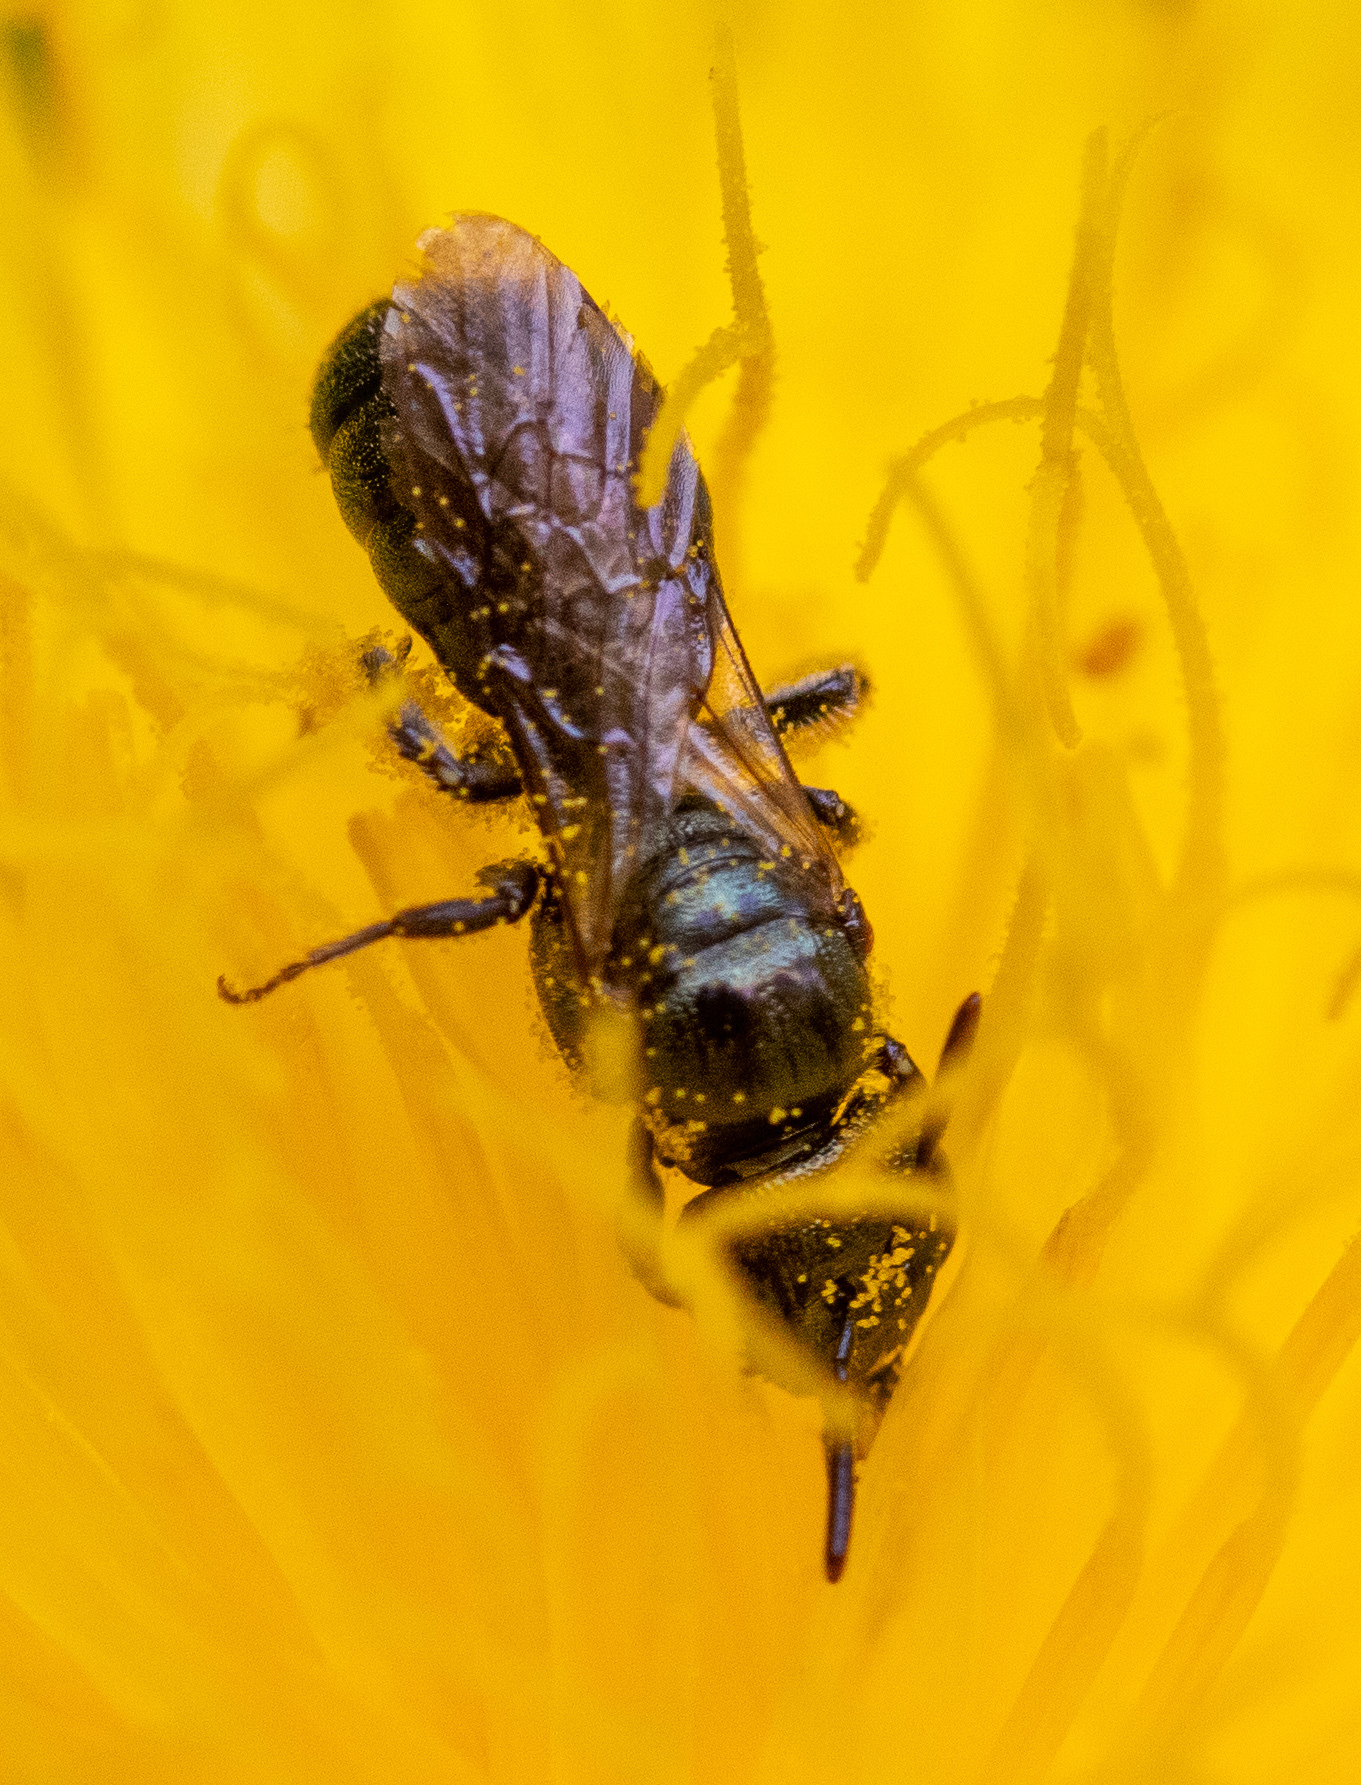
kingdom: Animalia
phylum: Arthropoda
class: Insecta
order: Hymenoptera
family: Apidae
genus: Zadontomerus
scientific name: Zadontomerus
